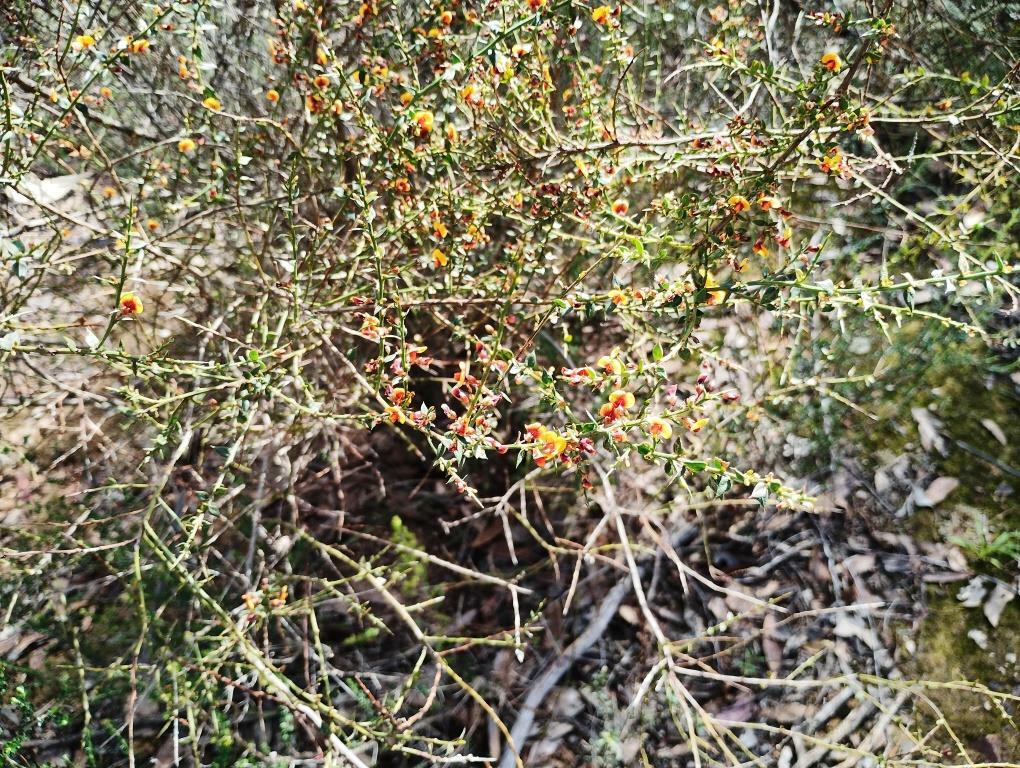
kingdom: Plantae
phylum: Tracheophyta
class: Magnoliopsida
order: Fabales
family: Fabaceae
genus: Daviesia
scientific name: Daviesia ulicifolia
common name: Gorse bitter-pea
